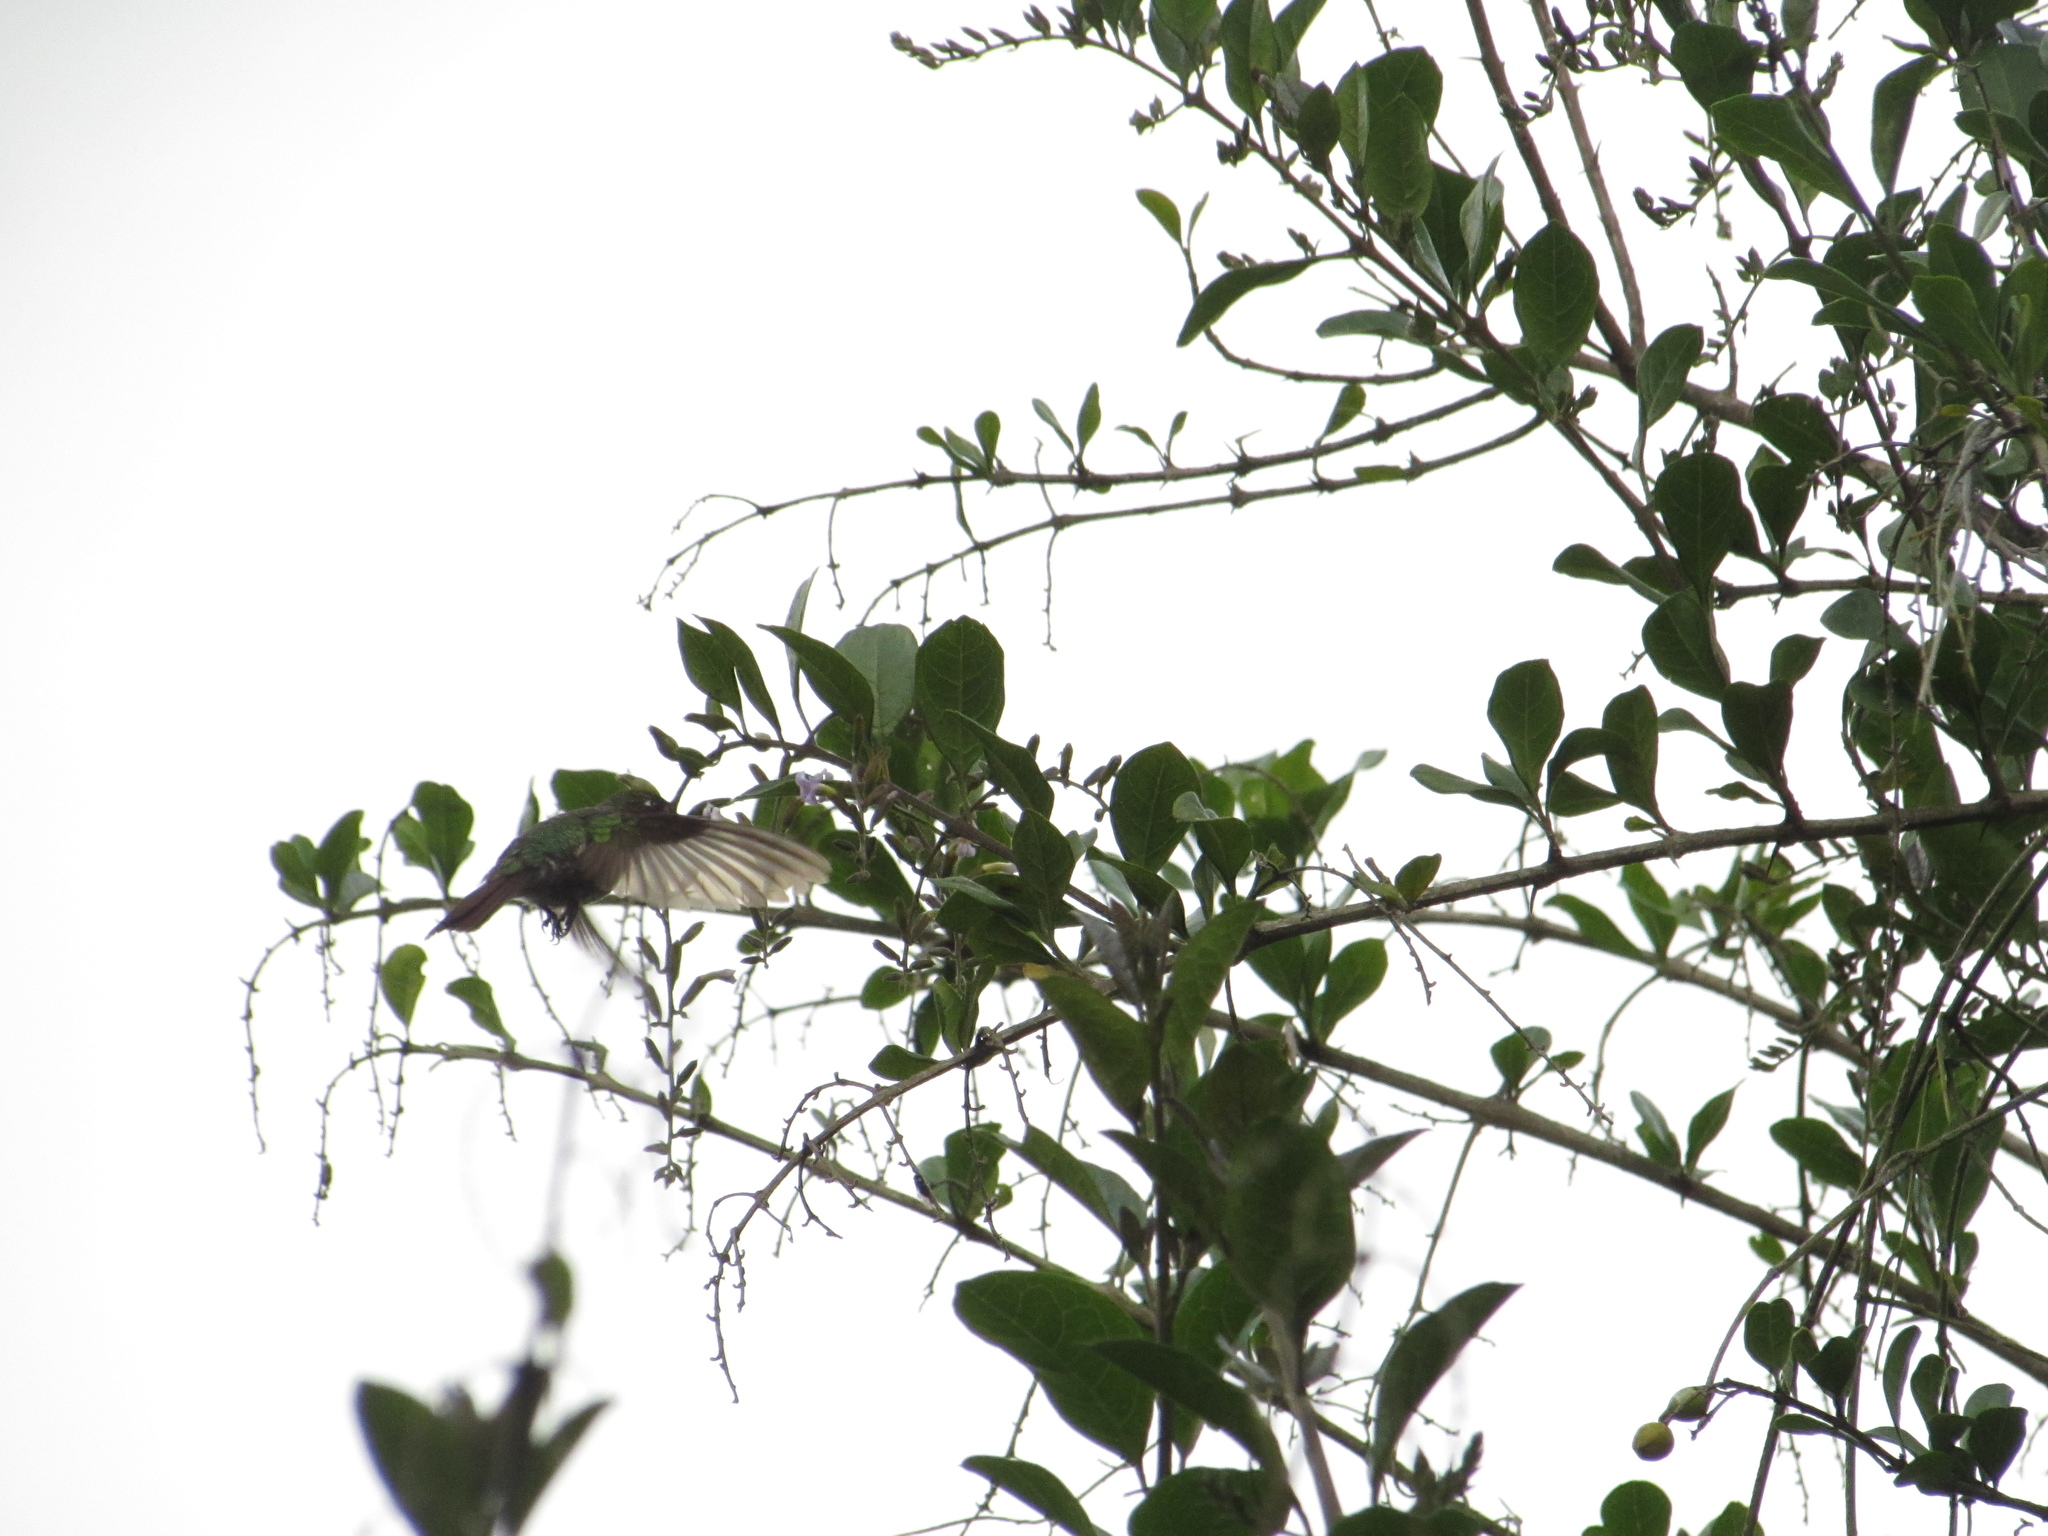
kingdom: Animalia
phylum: Chordata
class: Aves
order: Apodiformes
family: Trochilidae
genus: Metallura
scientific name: Metallura tyrianthina
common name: Tyrian metaltail
